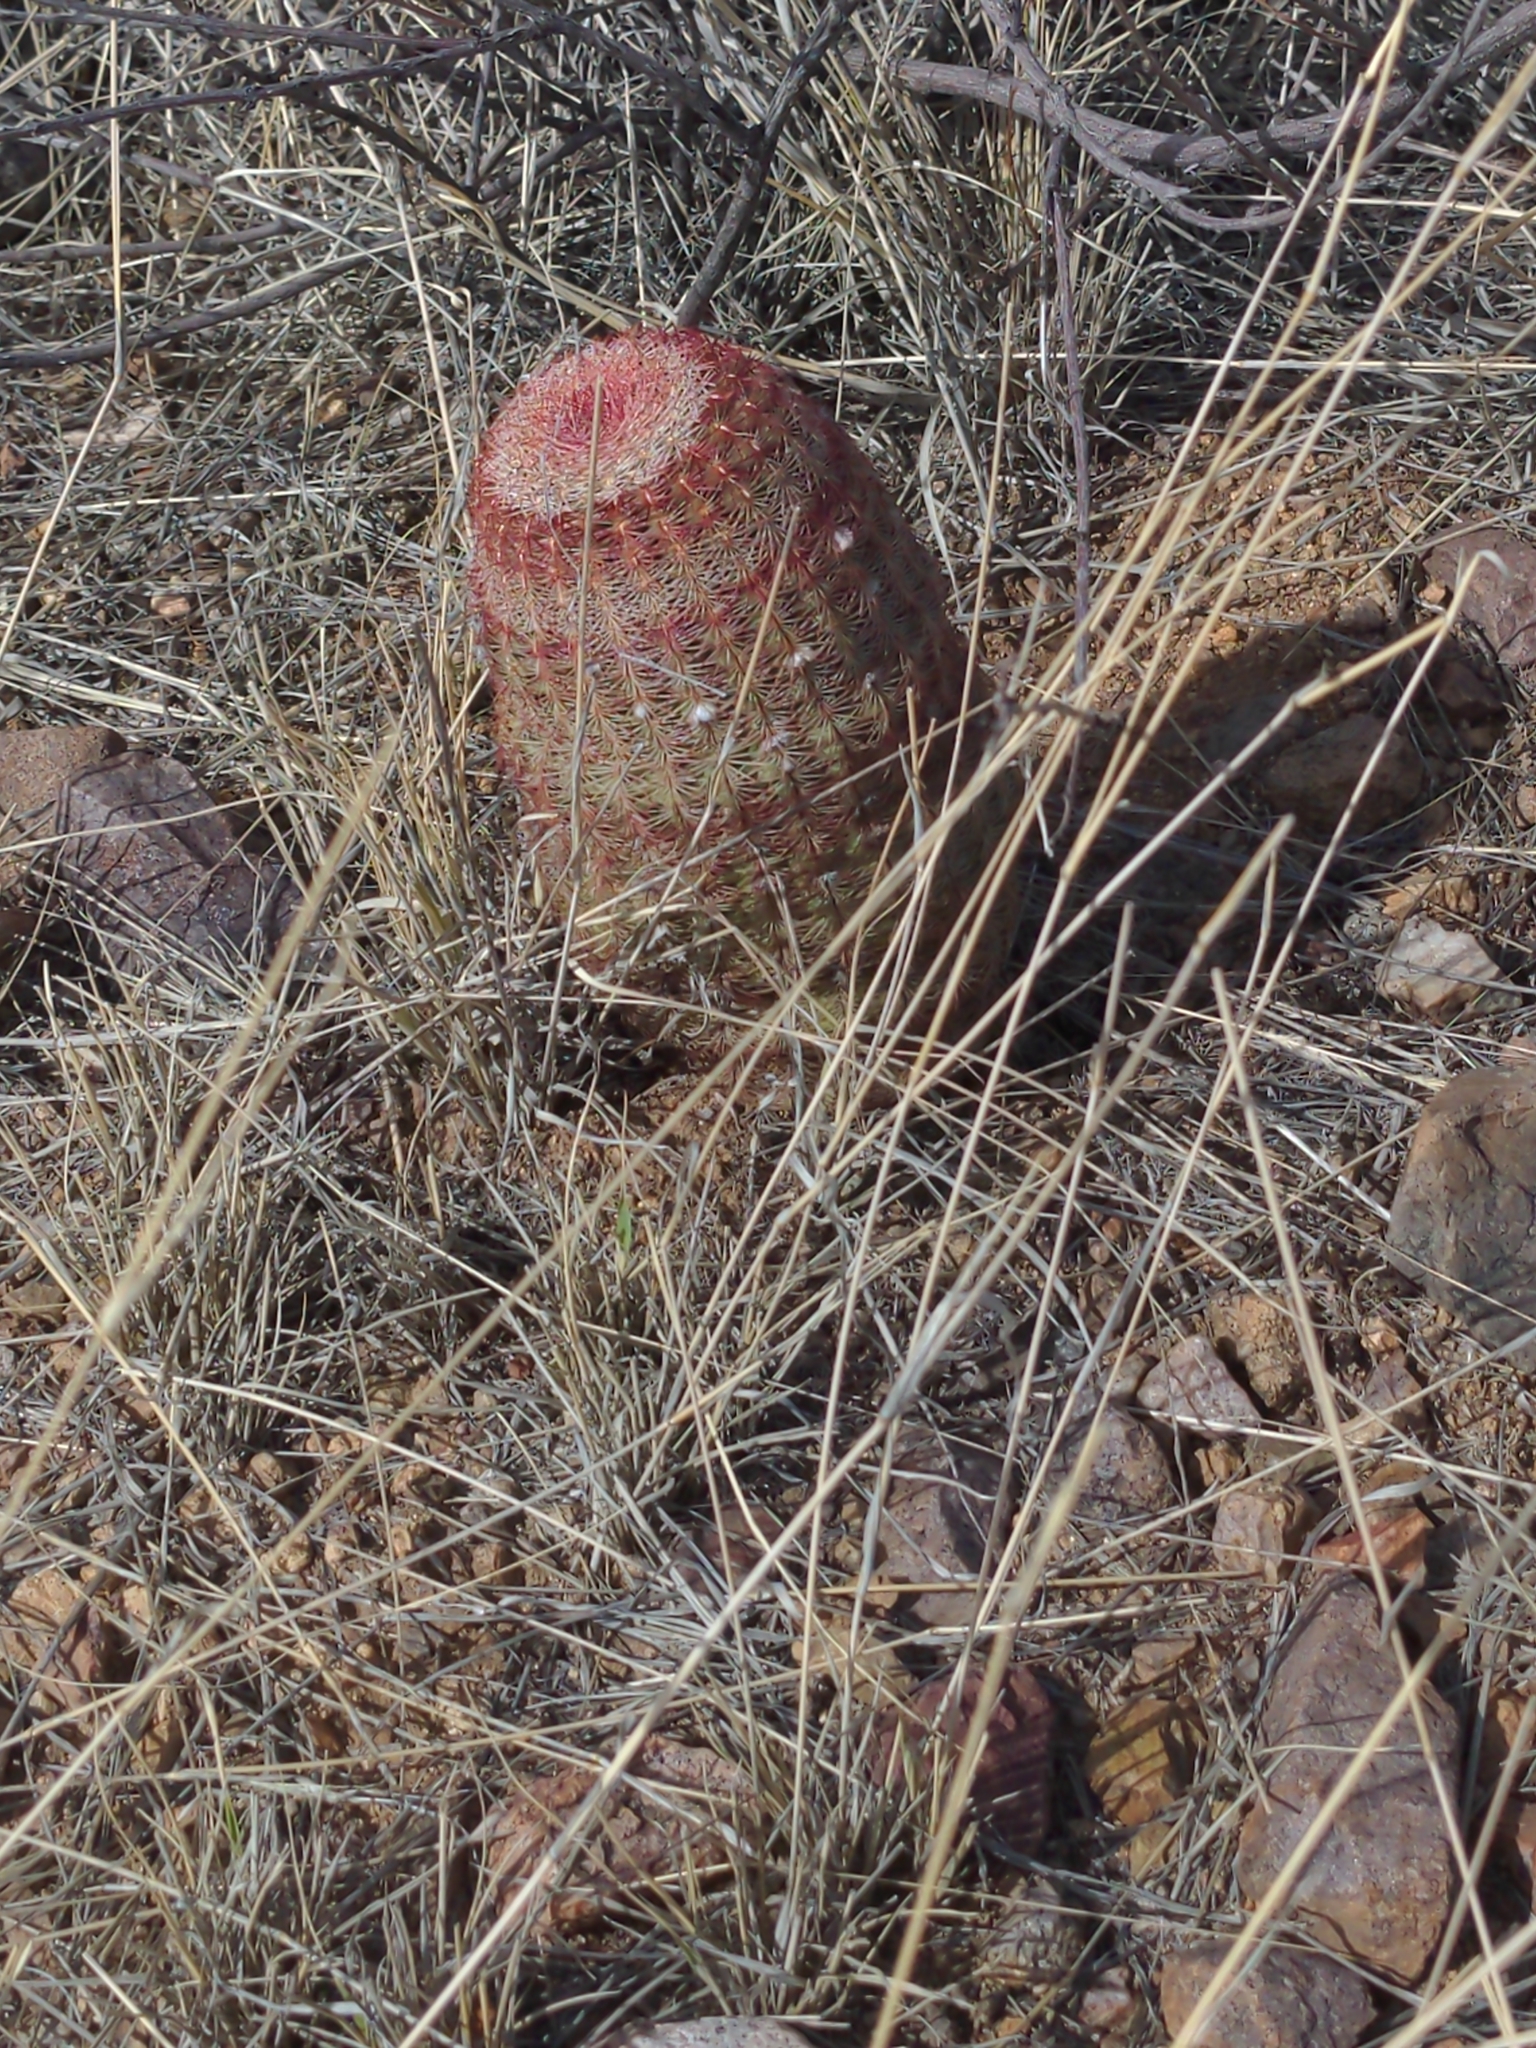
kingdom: Plantae
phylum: Tracheophyta
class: Magnoliopsida
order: Caryophyllales
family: Cactaceae
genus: Echinocereus
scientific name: Echinocereus rigidissimus
